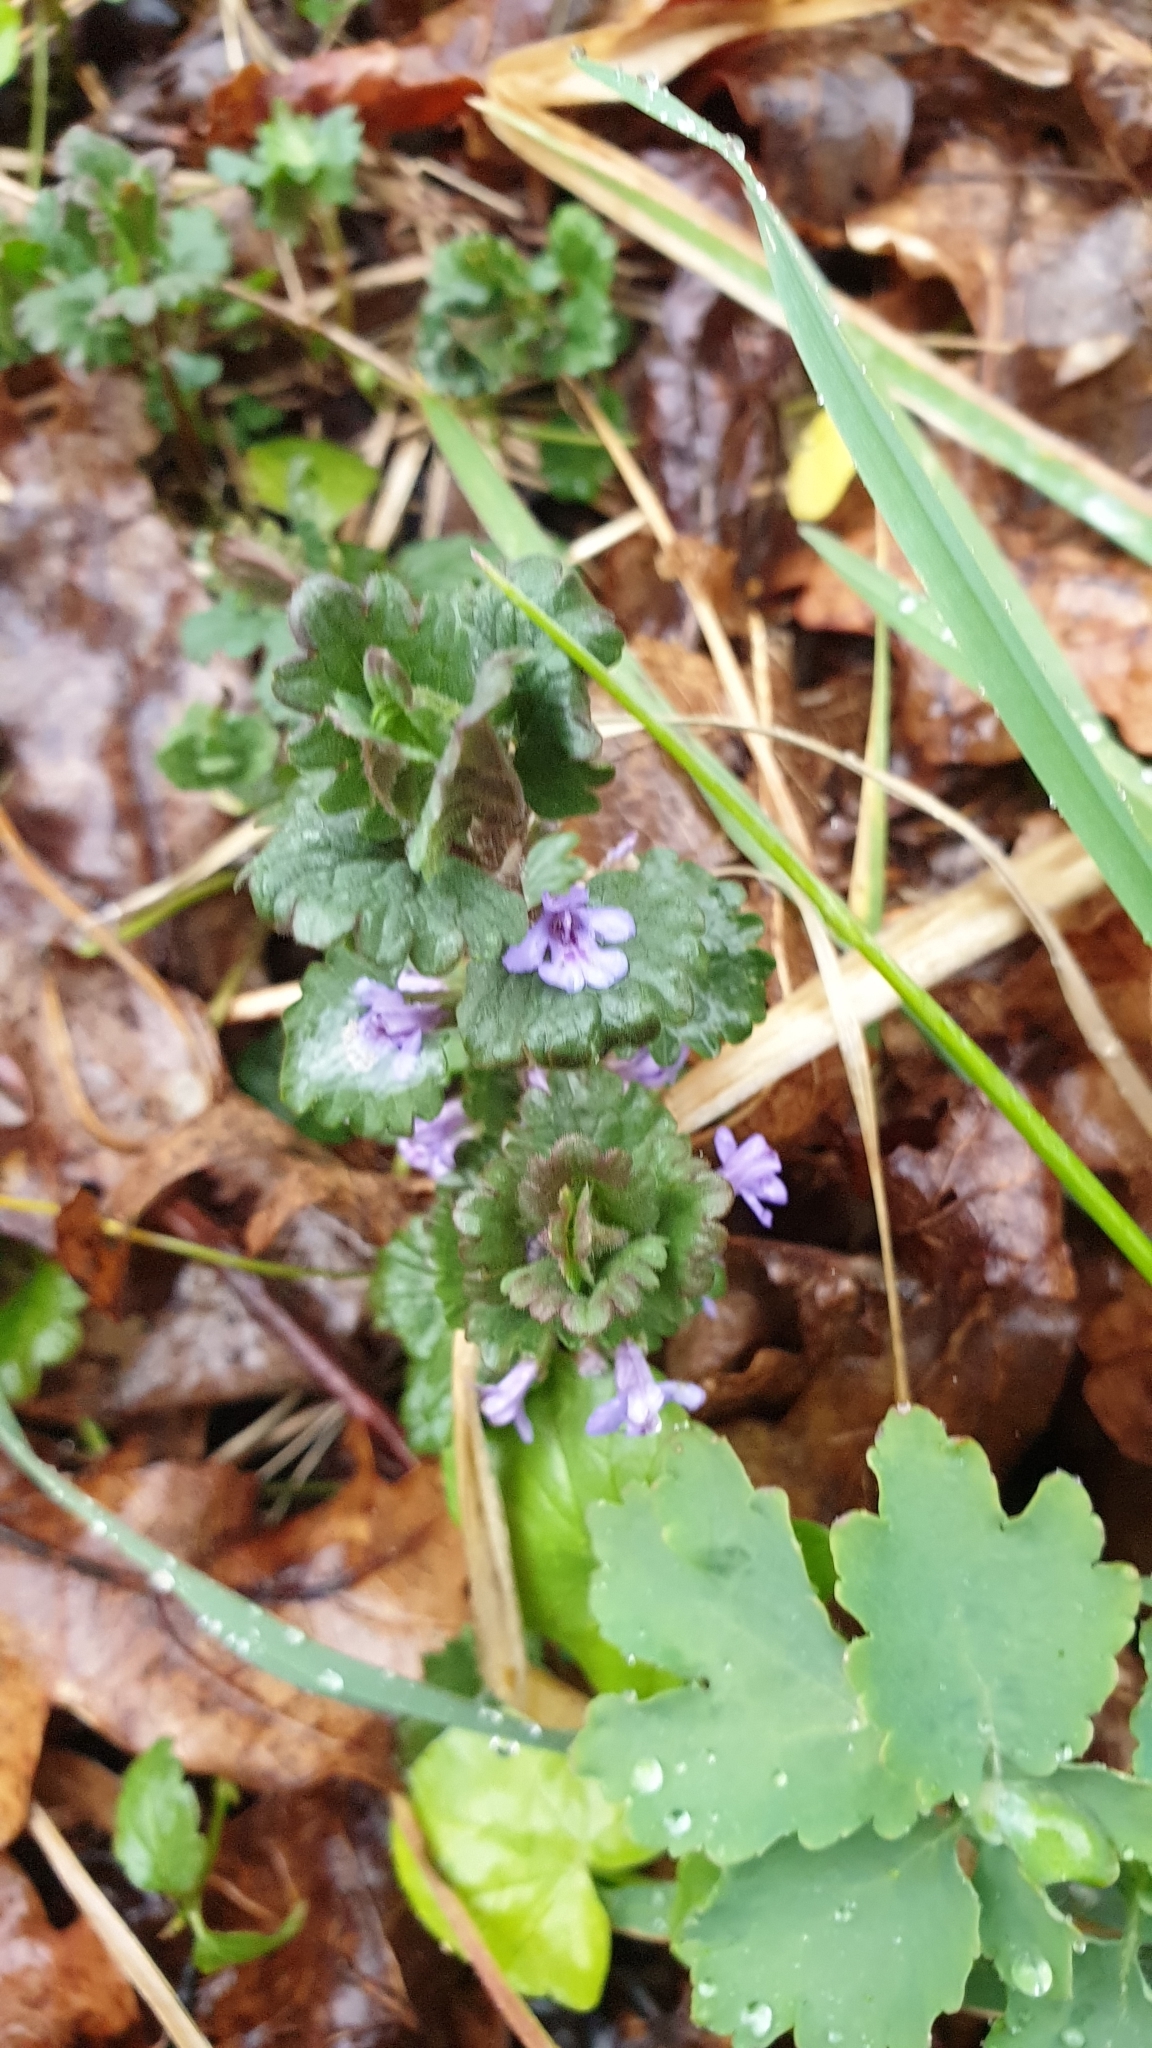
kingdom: Plantae
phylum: Tracheophyta
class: Magnoliopsida
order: Lamiales
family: Lamiaceae
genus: Glechoma
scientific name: Glechoma hederacea
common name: Ground ivy
